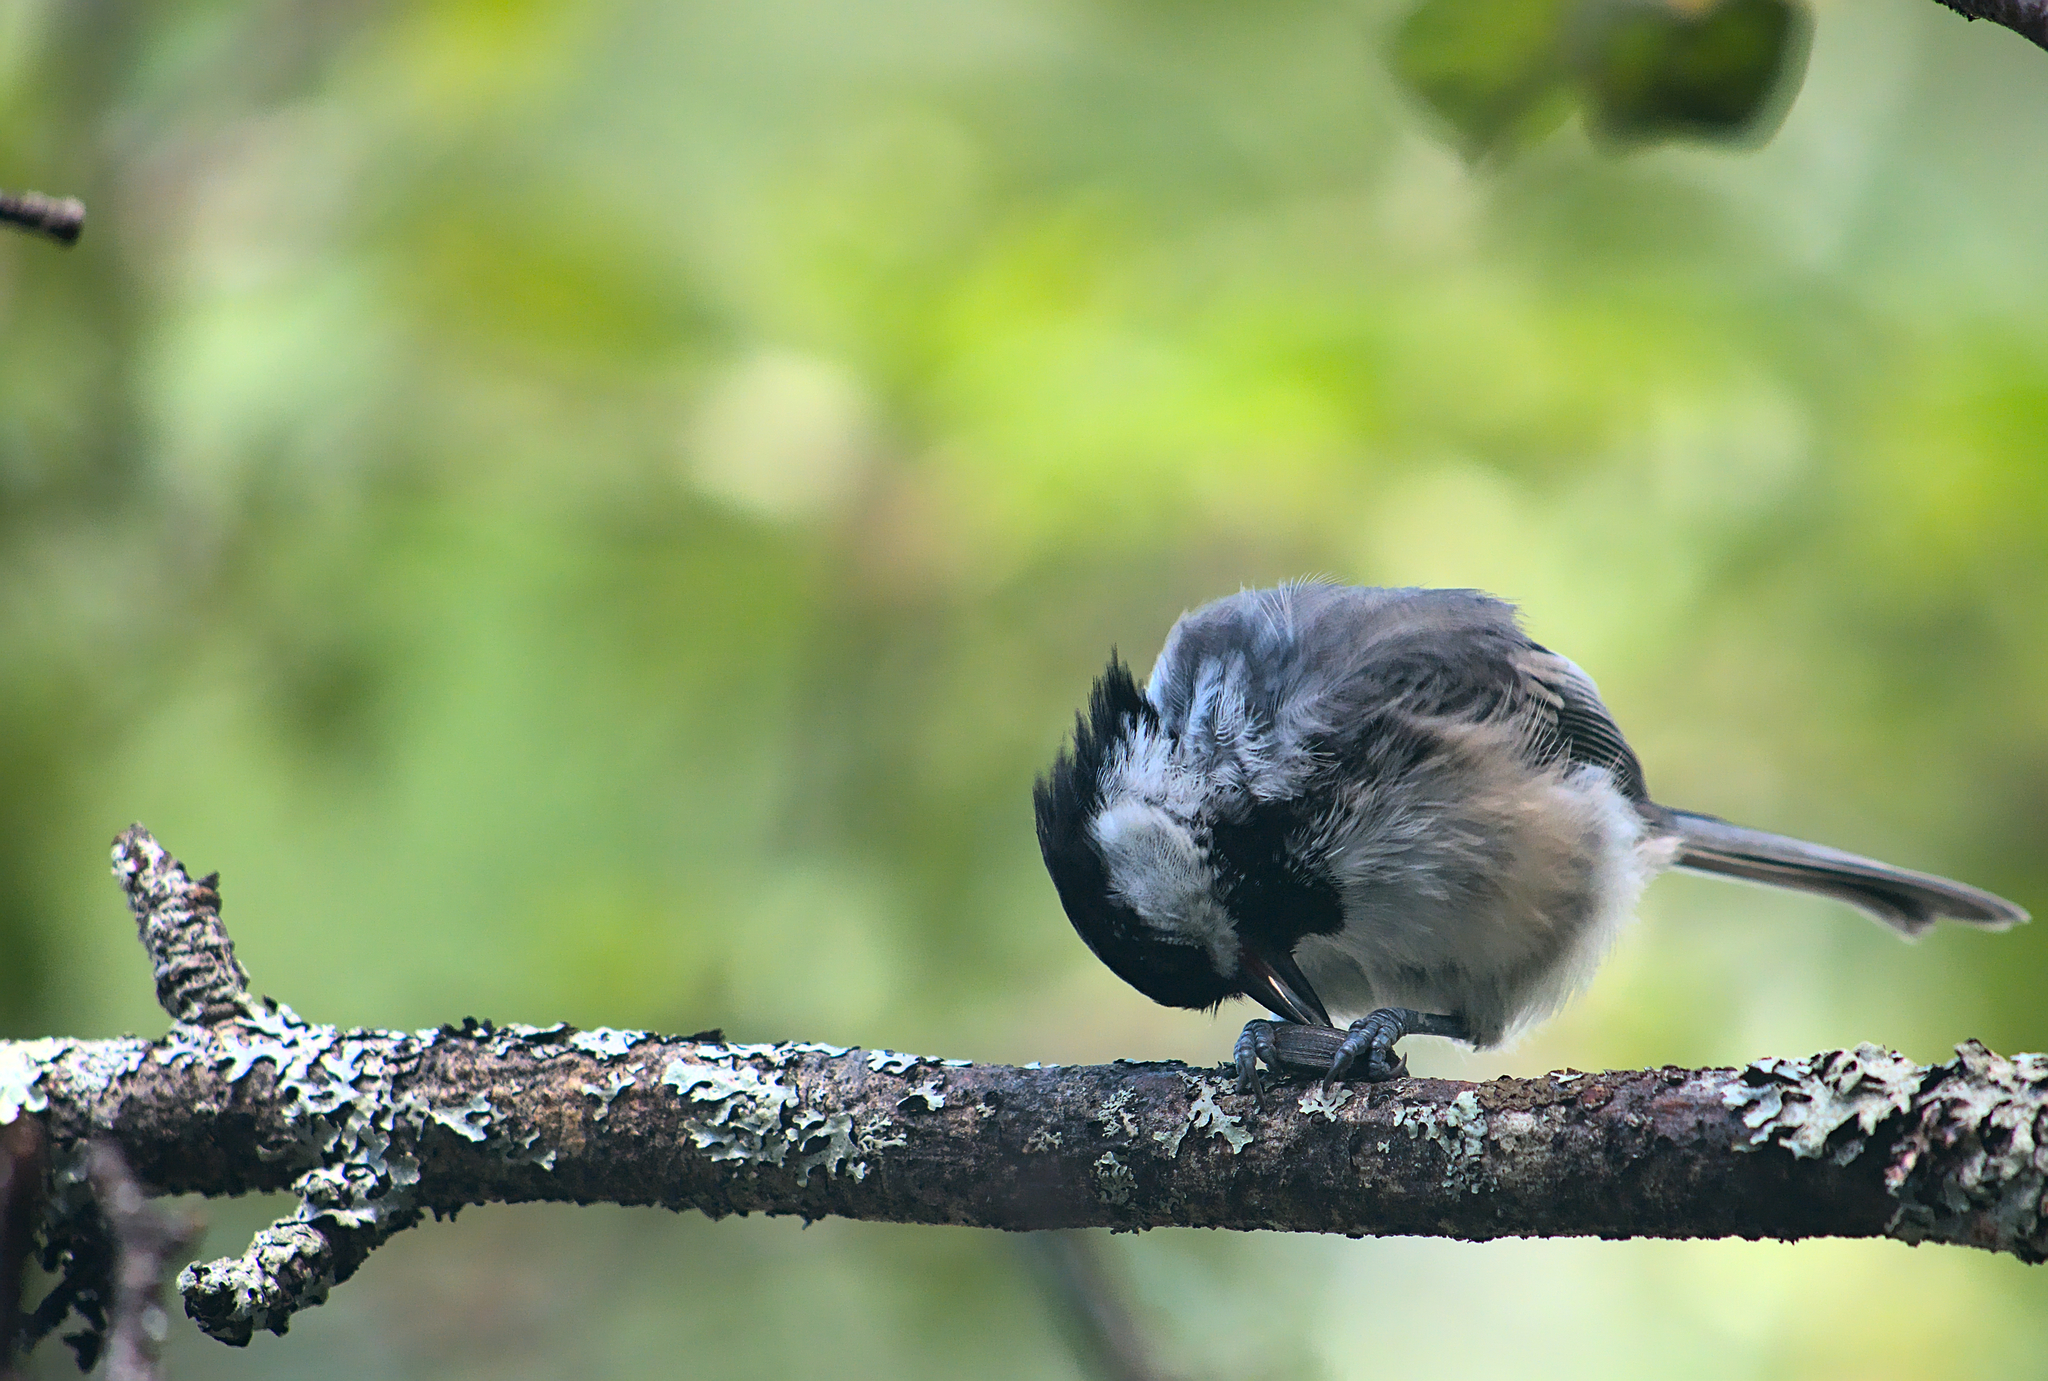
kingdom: Animalia
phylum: Chordata
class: Aves
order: Passeriformes
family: Paridae
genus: Poecile
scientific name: Poecile atricapillus
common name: Black-capped chickadee
